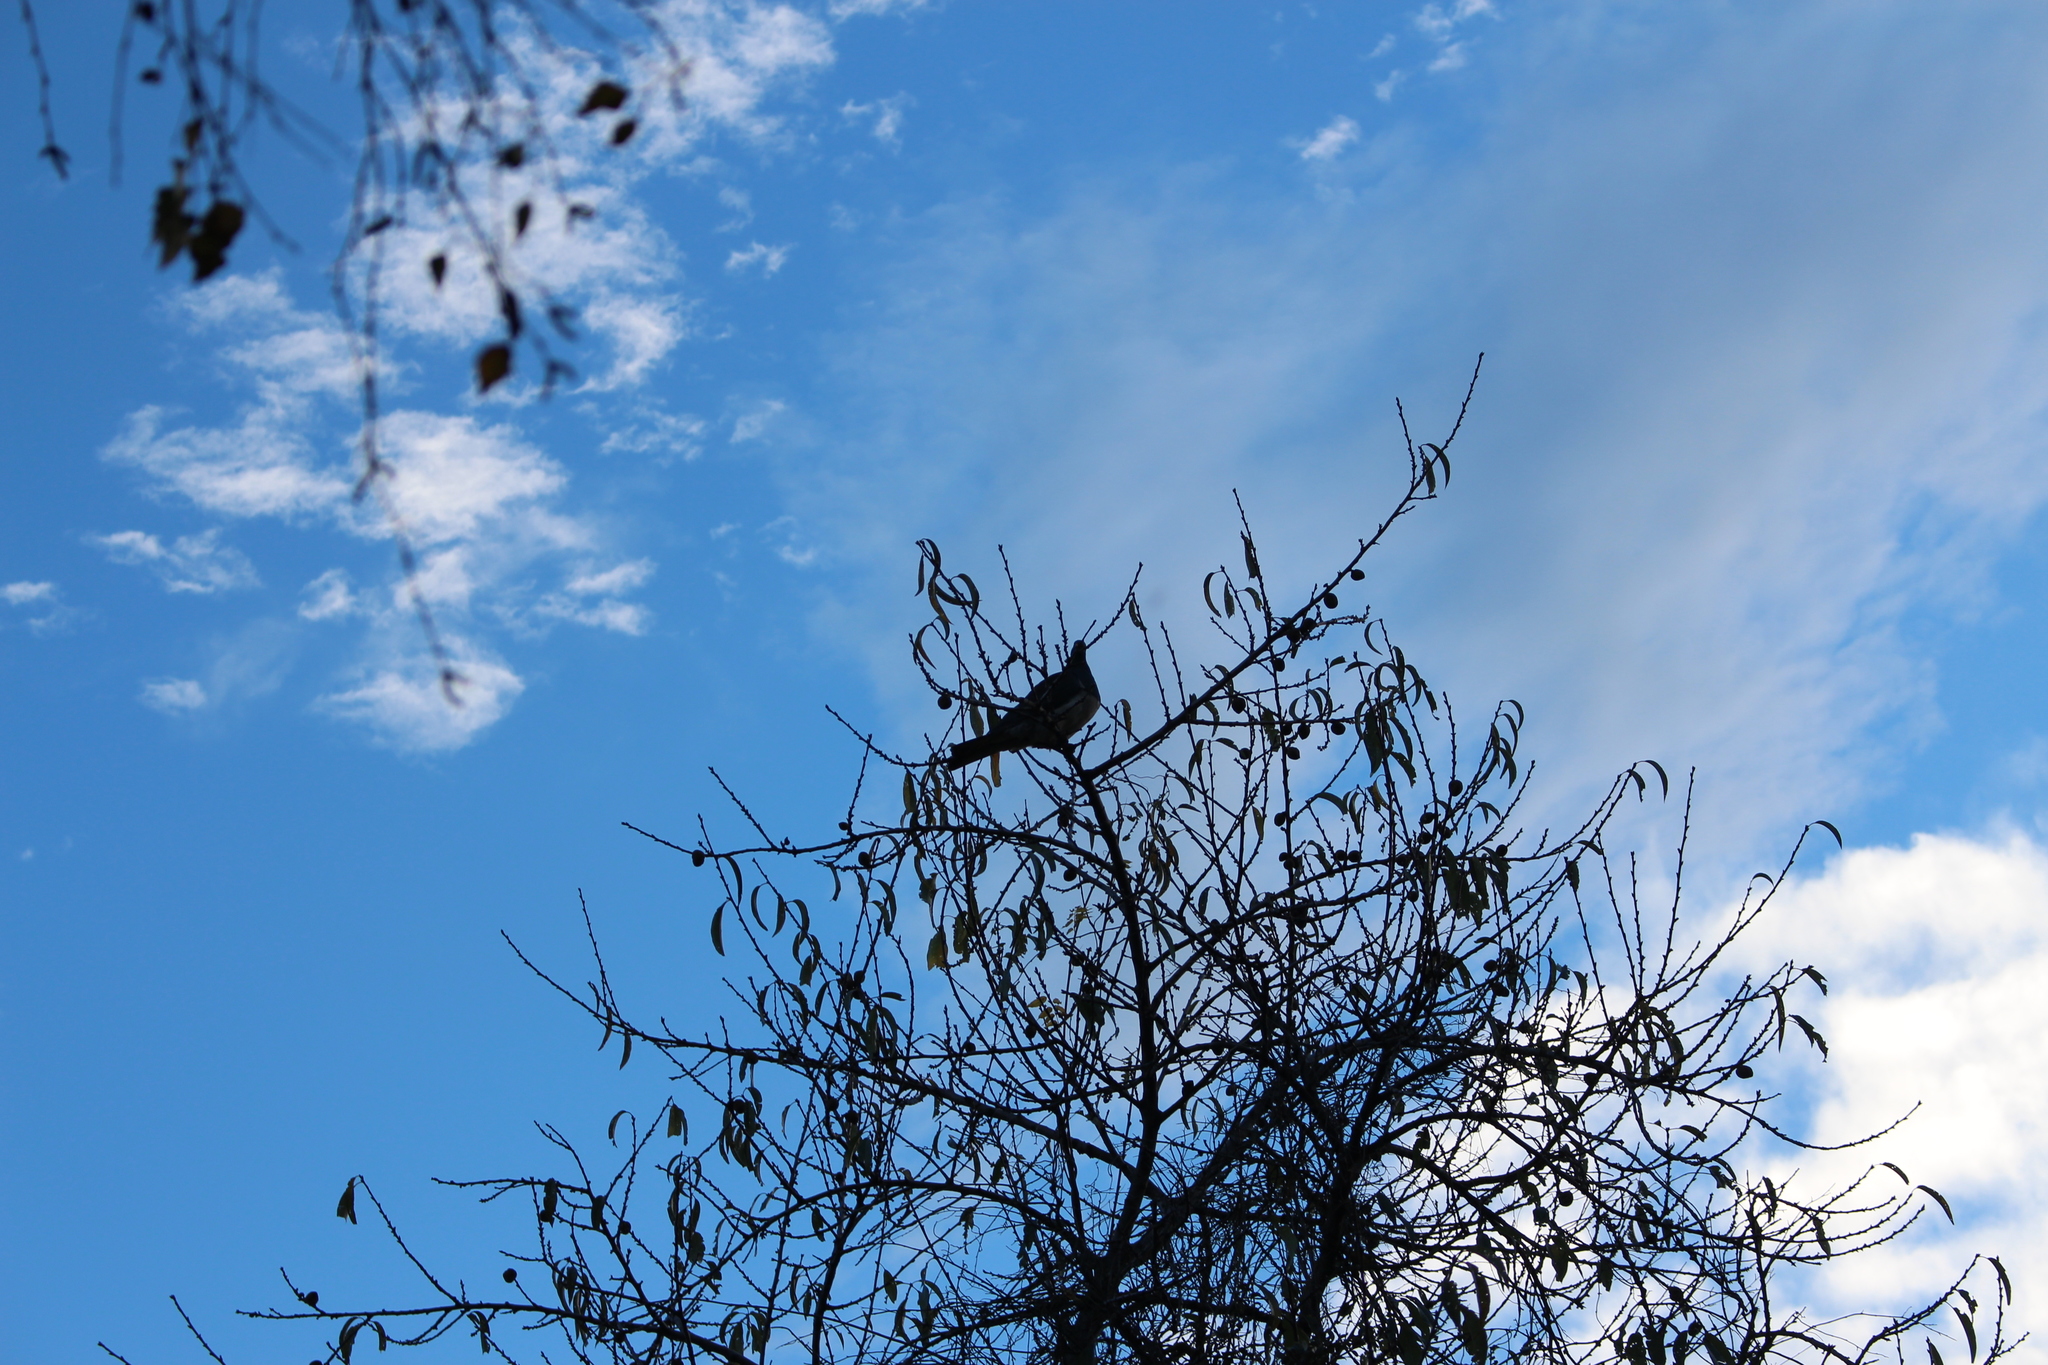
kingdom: Animalia
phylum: Chordata
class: Aves
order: Columbiformes
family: Columbidae
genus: Hemiphaga
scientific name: Hemiphaga novaeseelandiae
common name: New zealand pigeon
